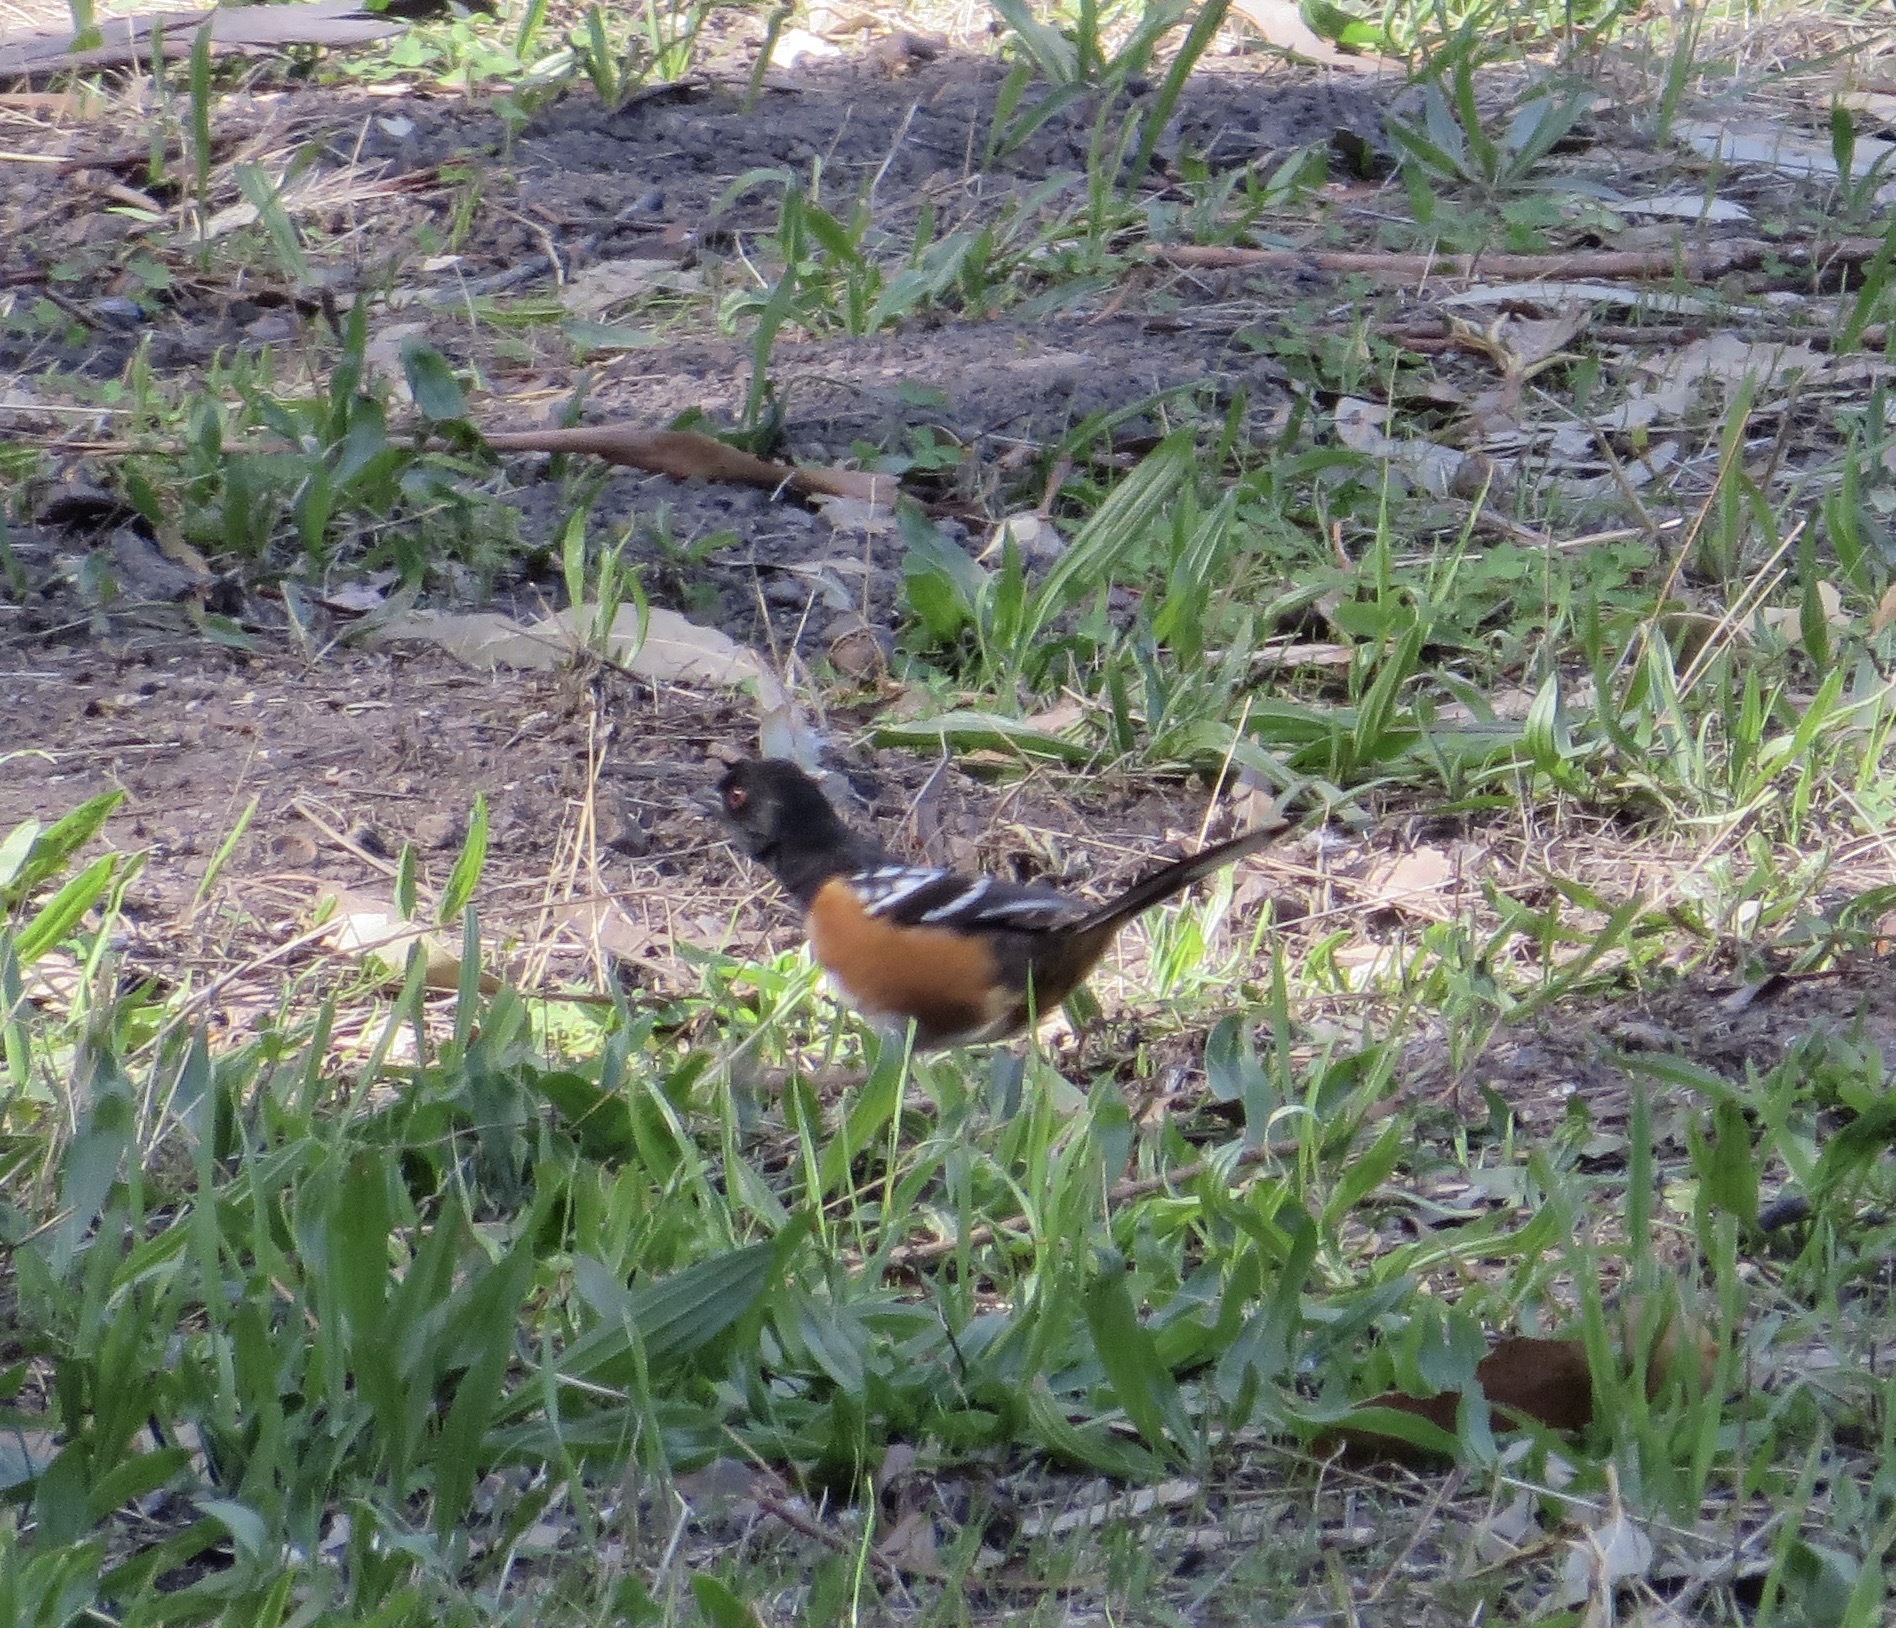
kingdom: Animalia
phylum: Chordata
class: Aves
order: Passeriformes
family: Passerellidae
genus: Pipilo
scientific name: Pipilo maculatus
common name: Spotted towhee
